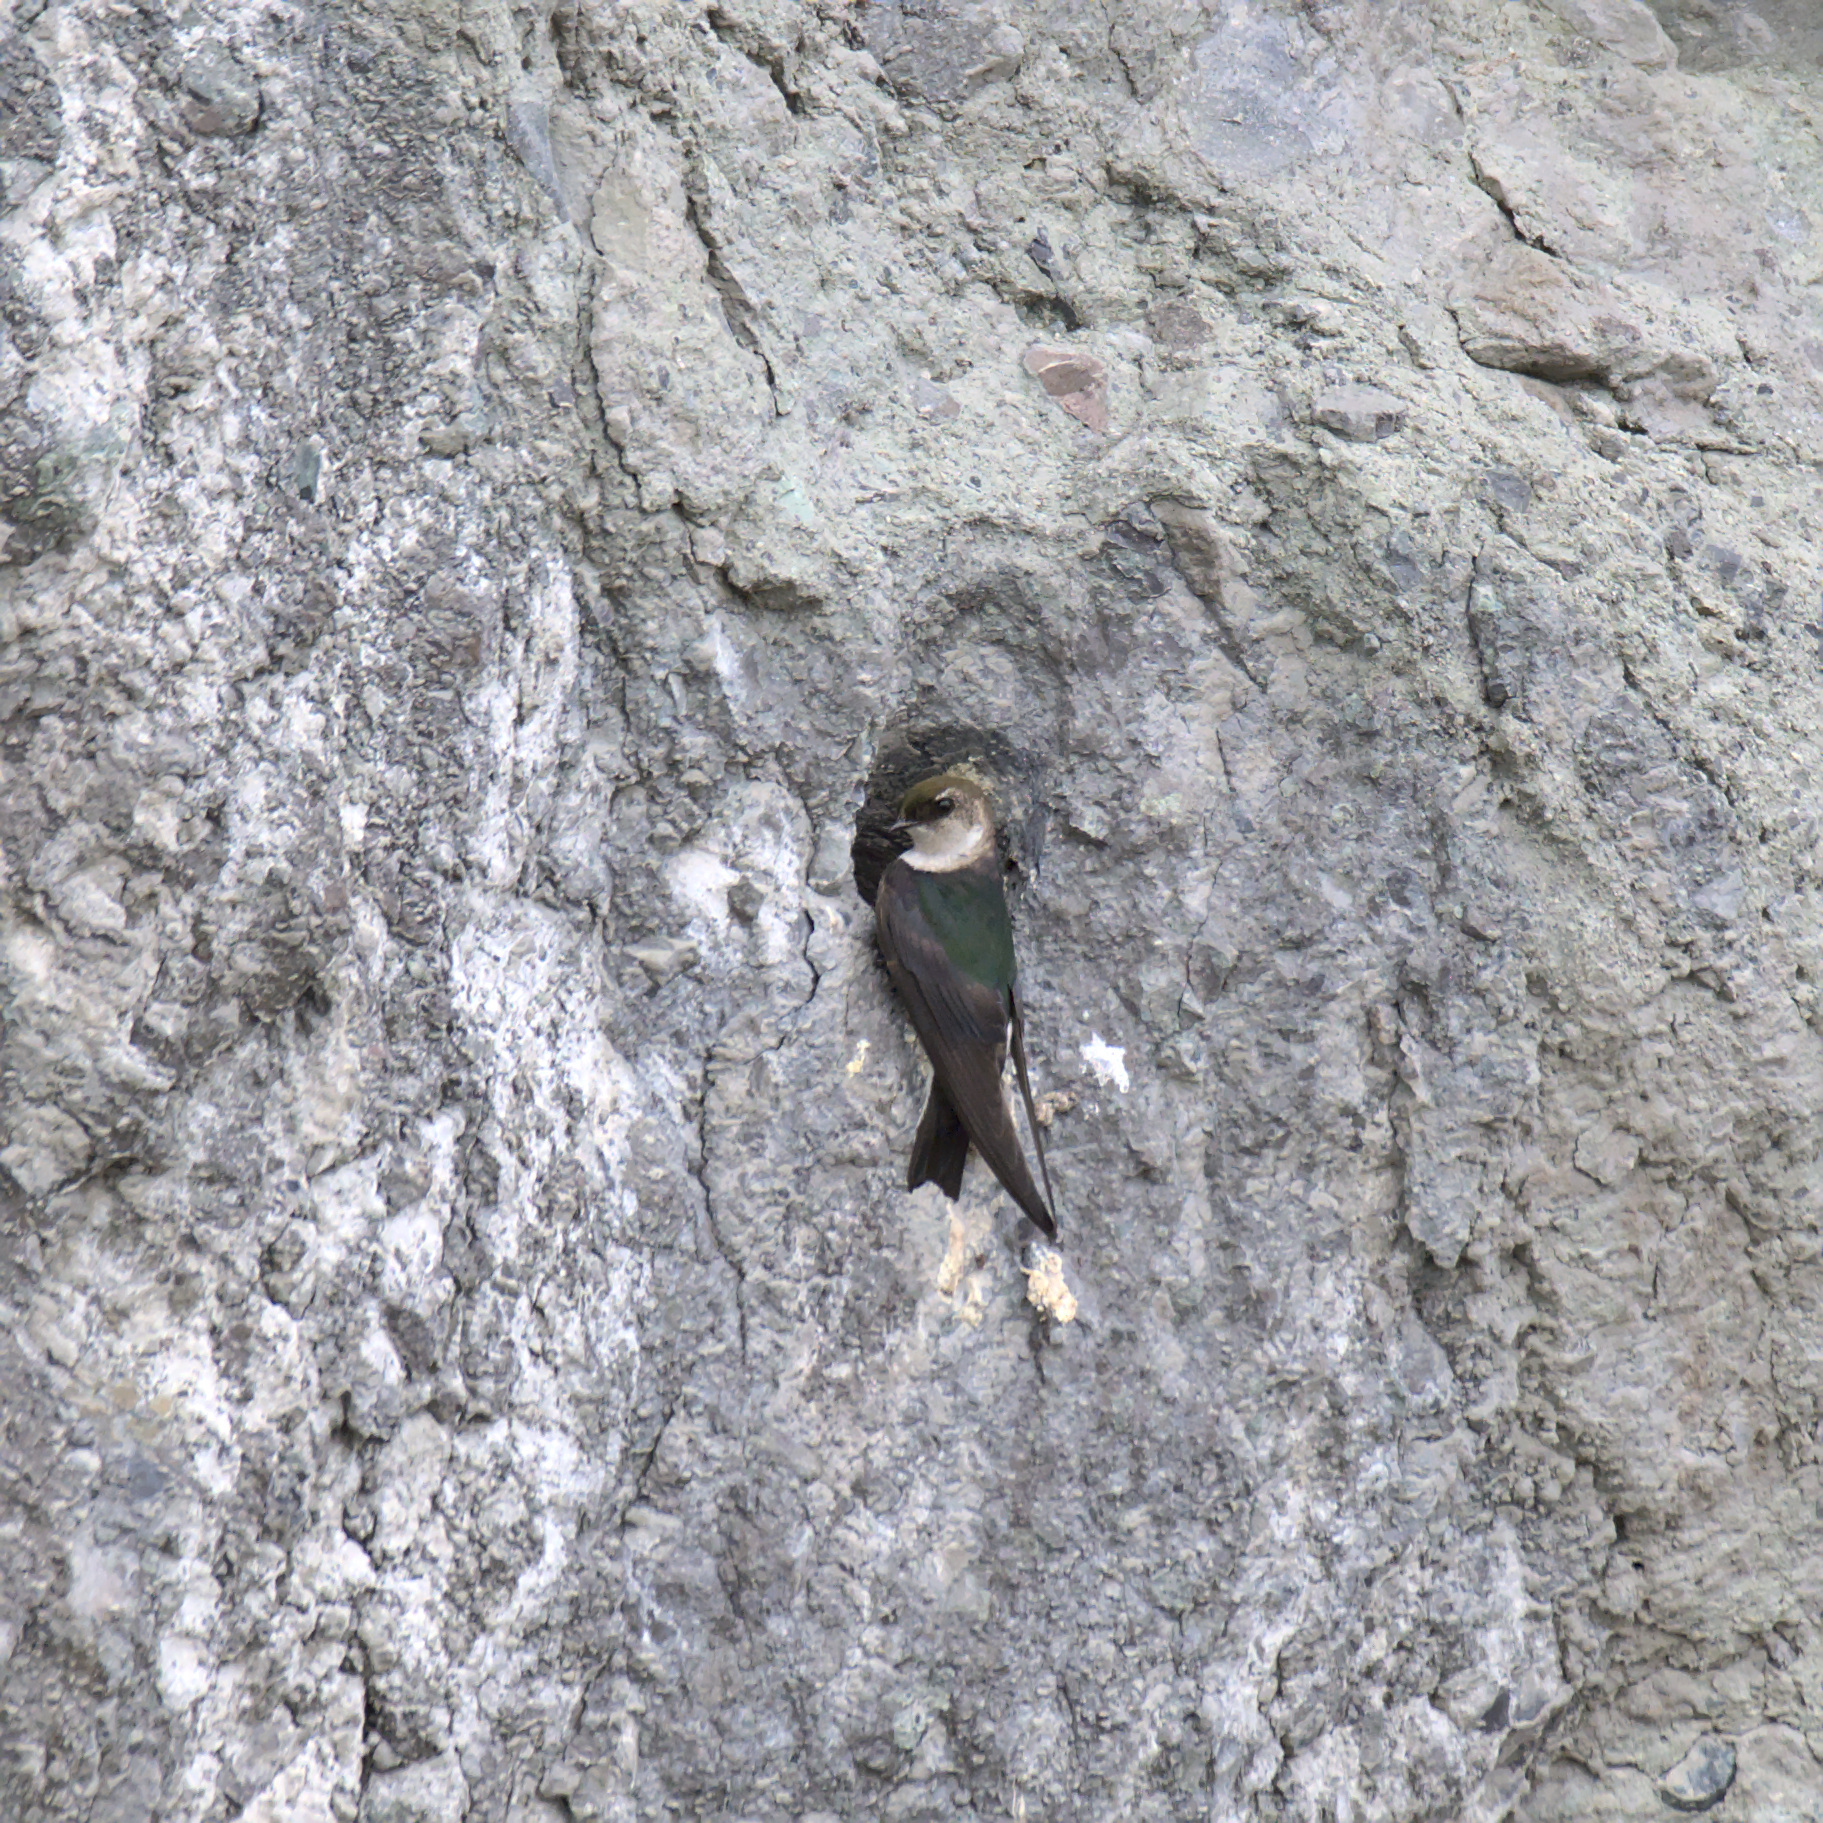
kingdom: Animalia
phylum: Chordata
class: Aves
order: Passeriformes
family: Hirundinidae
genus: Tachycineta
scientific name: Tachycineta thalassina
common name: Violet-green swallow
